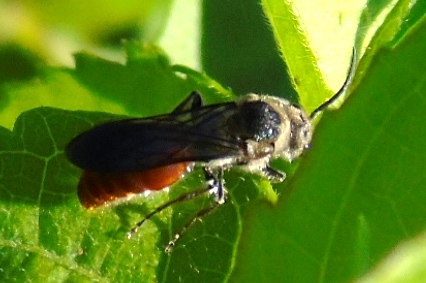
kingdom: Animalia
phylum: Arthropoda
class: Insecta
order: Hymenoptera
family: Mutillidae
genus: Timulla
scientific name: Timulla
